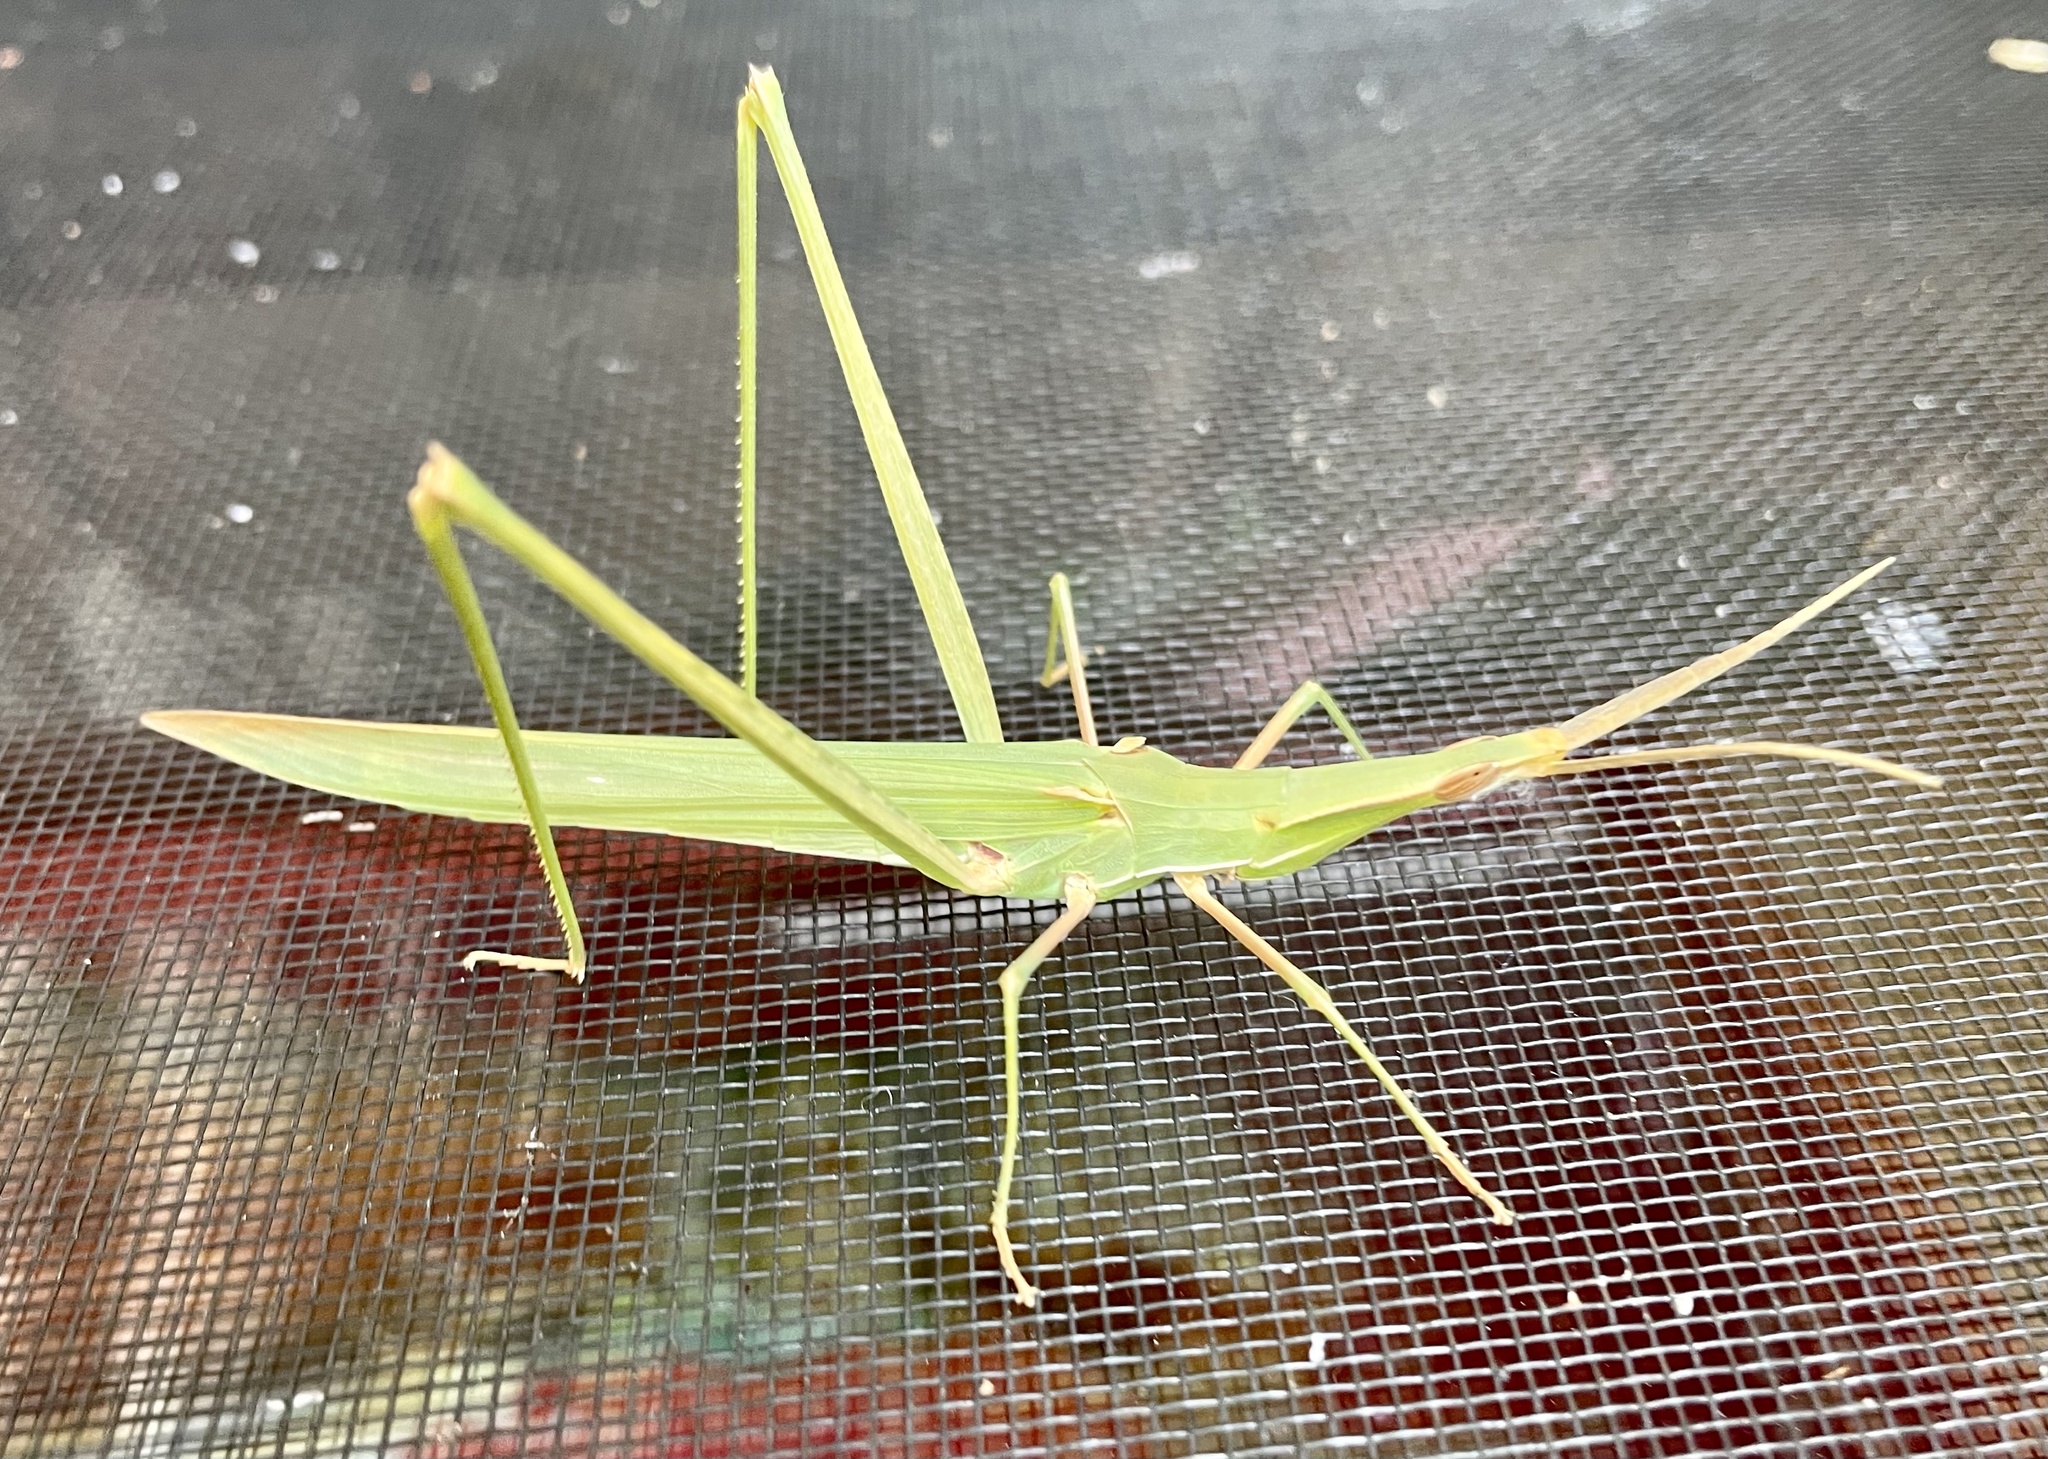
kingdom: Animalia
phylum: Arthropoda
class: Insecta
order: Orthoptera
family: Acrididae
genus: Acrida
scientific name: Acrida conica
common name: Giant green slantface
